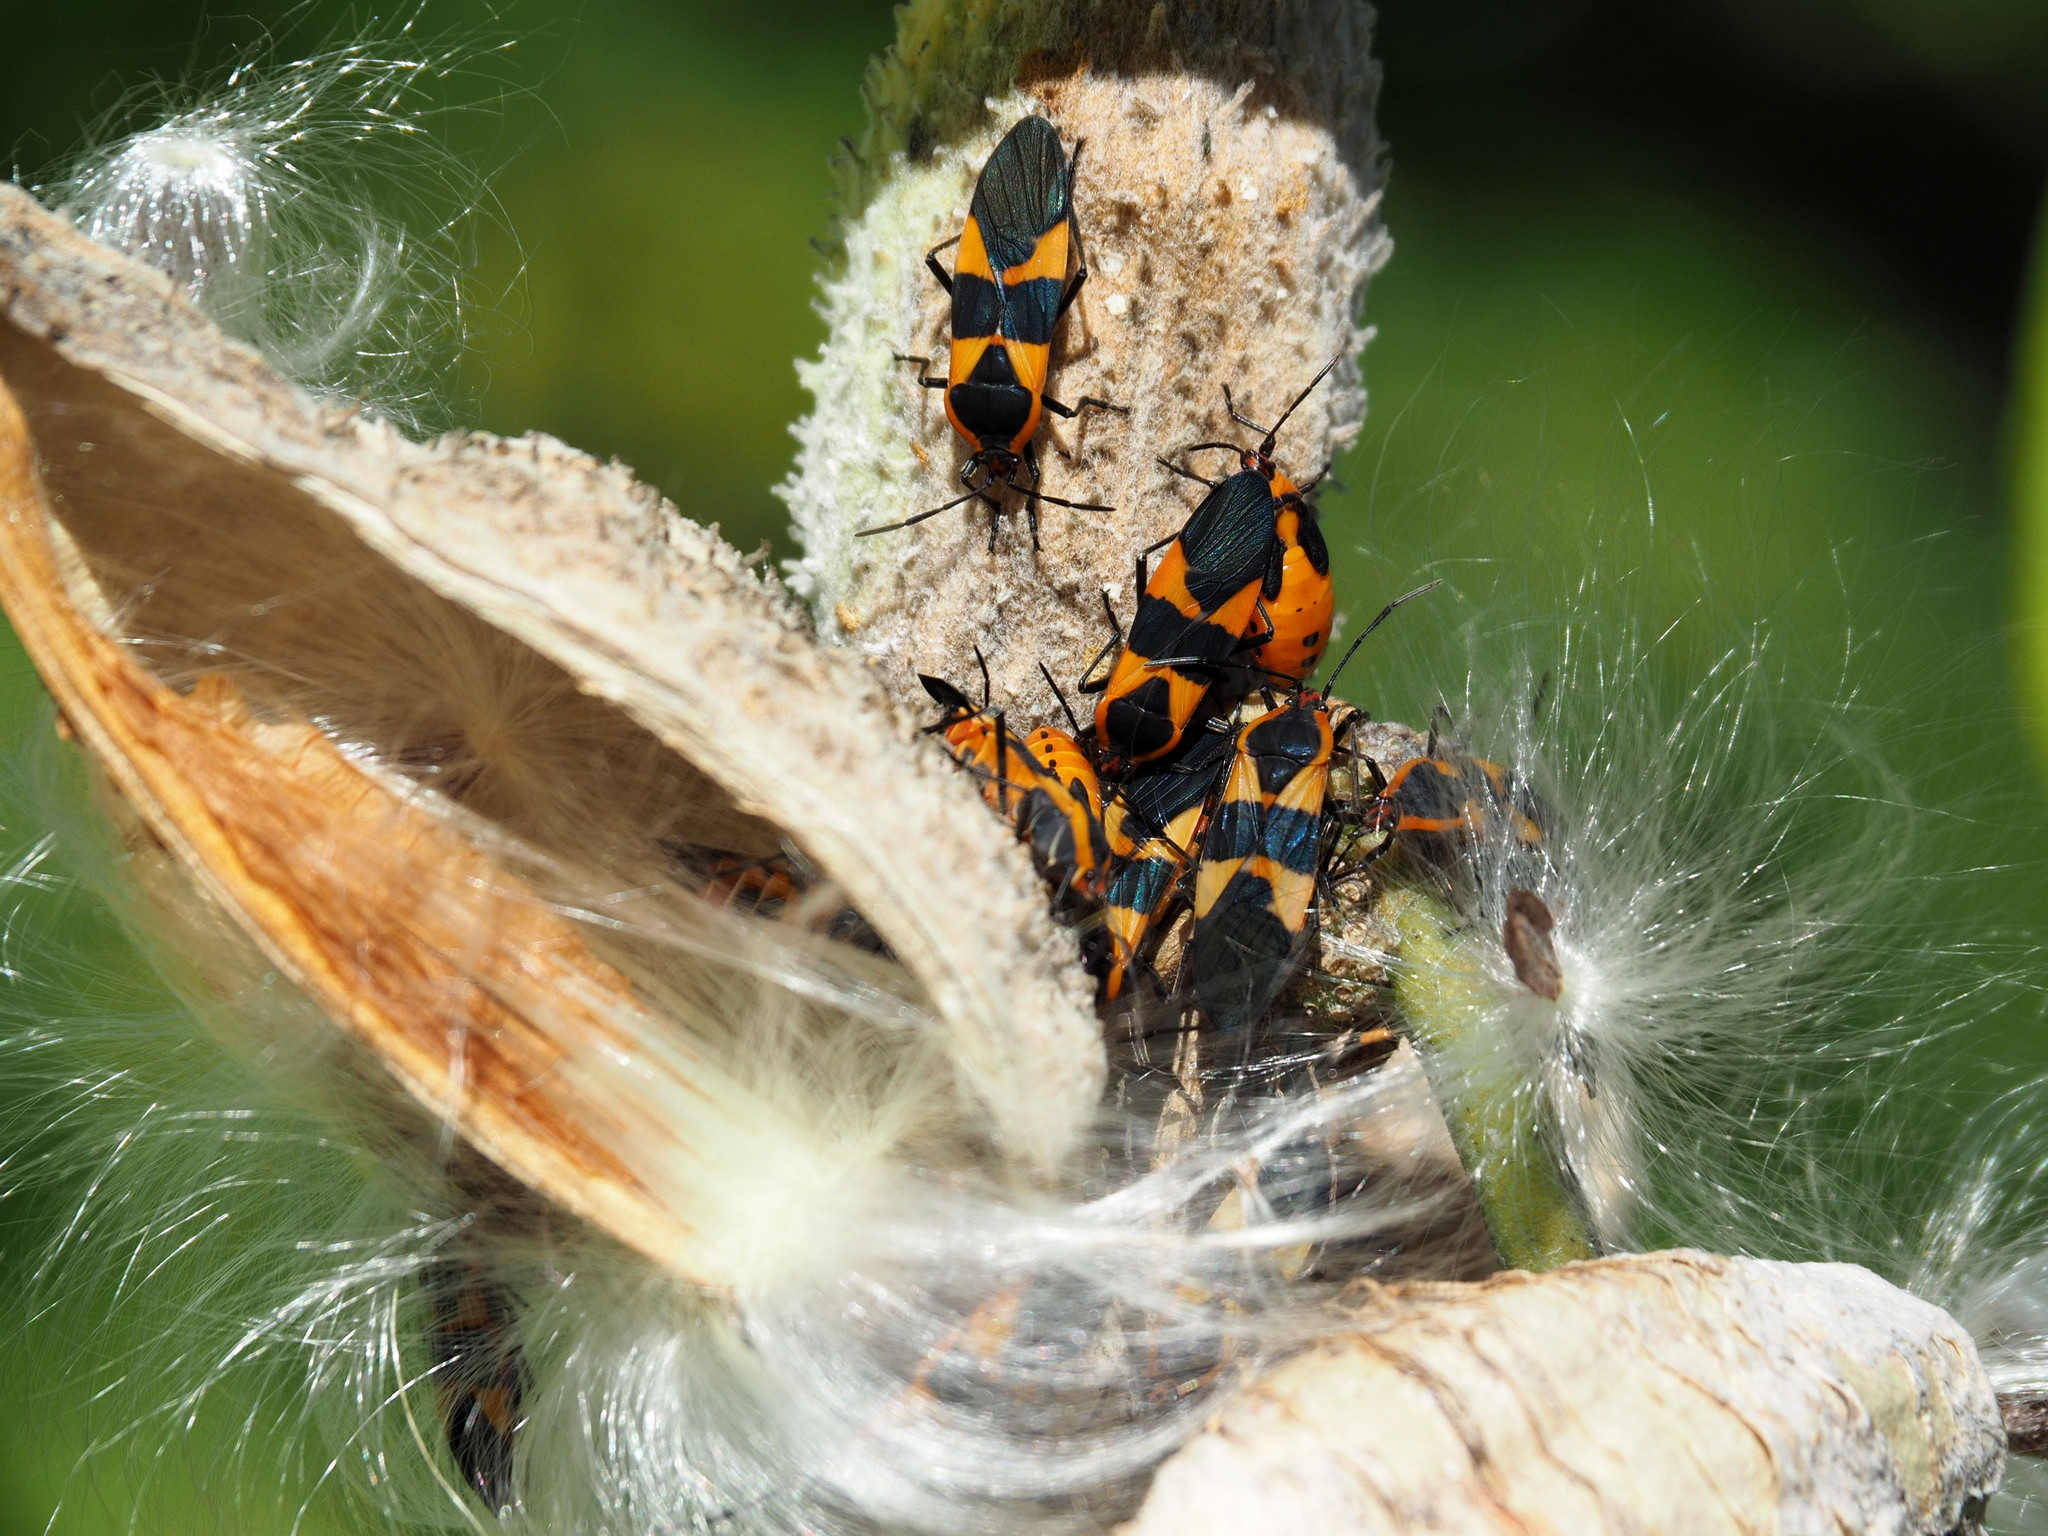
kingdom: Animalia
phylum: Arthropoda
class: Insecta
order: Hemiptera
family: Lygaeidae
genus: Oncopeltus
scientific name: Oncopeltus fasciatus
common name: Large milkweed bug
